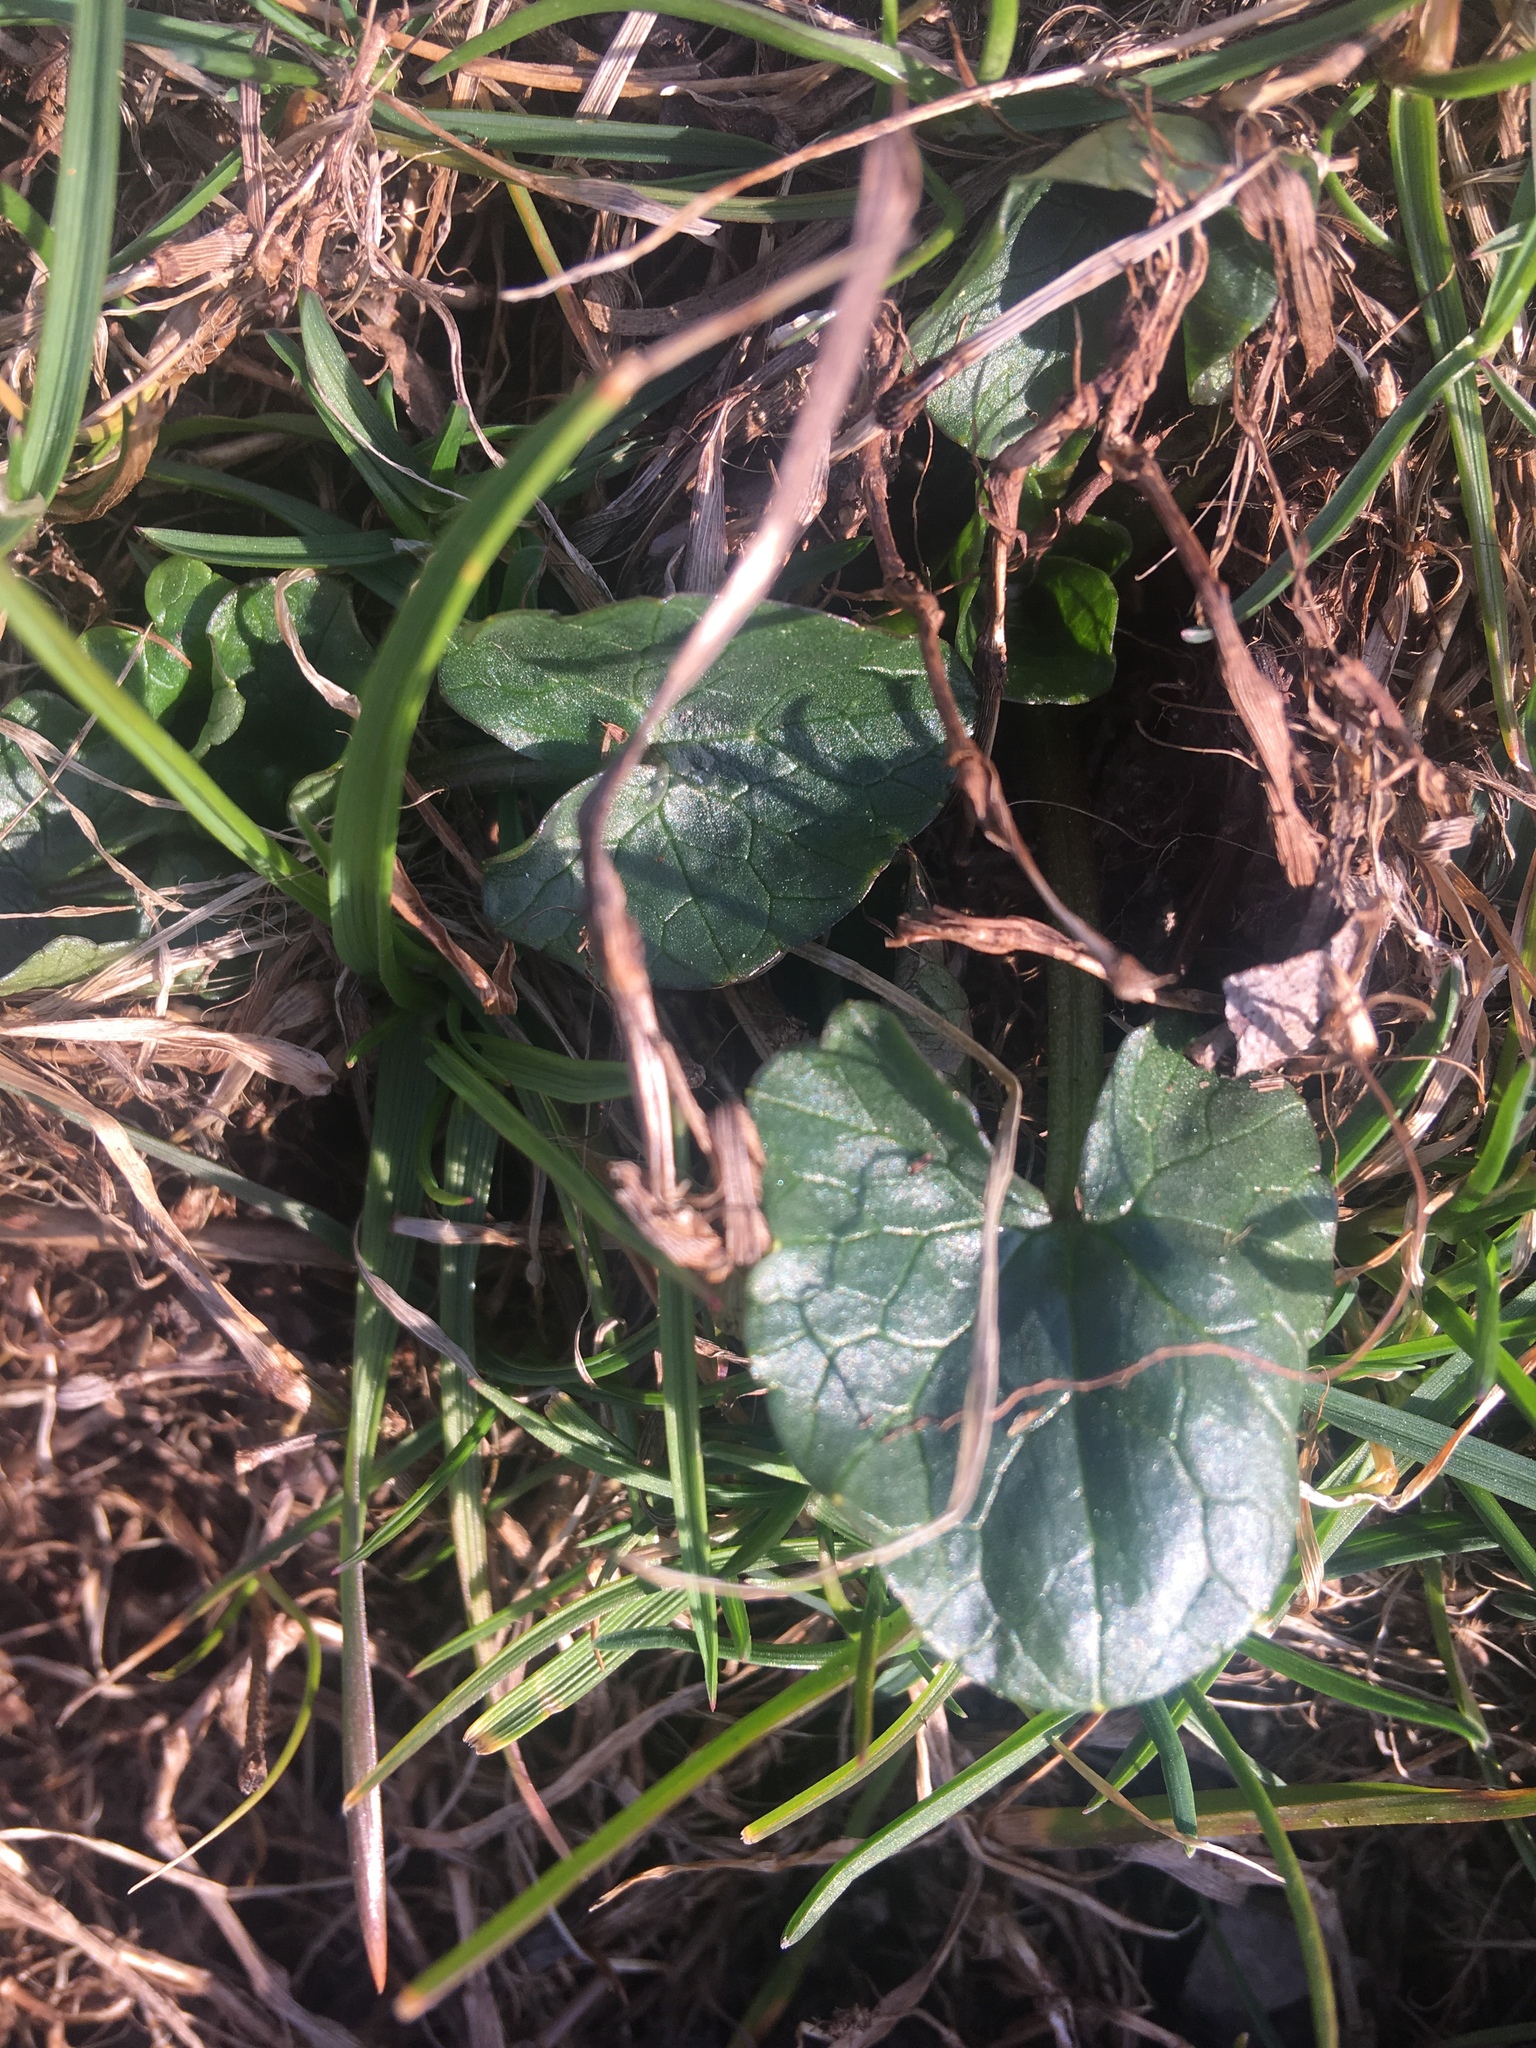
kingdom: Plantae
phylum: Tracheophyta
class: Magnoliopsida
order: Ranunculales
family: Ranunculaceae
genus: Ficaria
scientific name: Ficaria verna
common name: Lesser celandine
